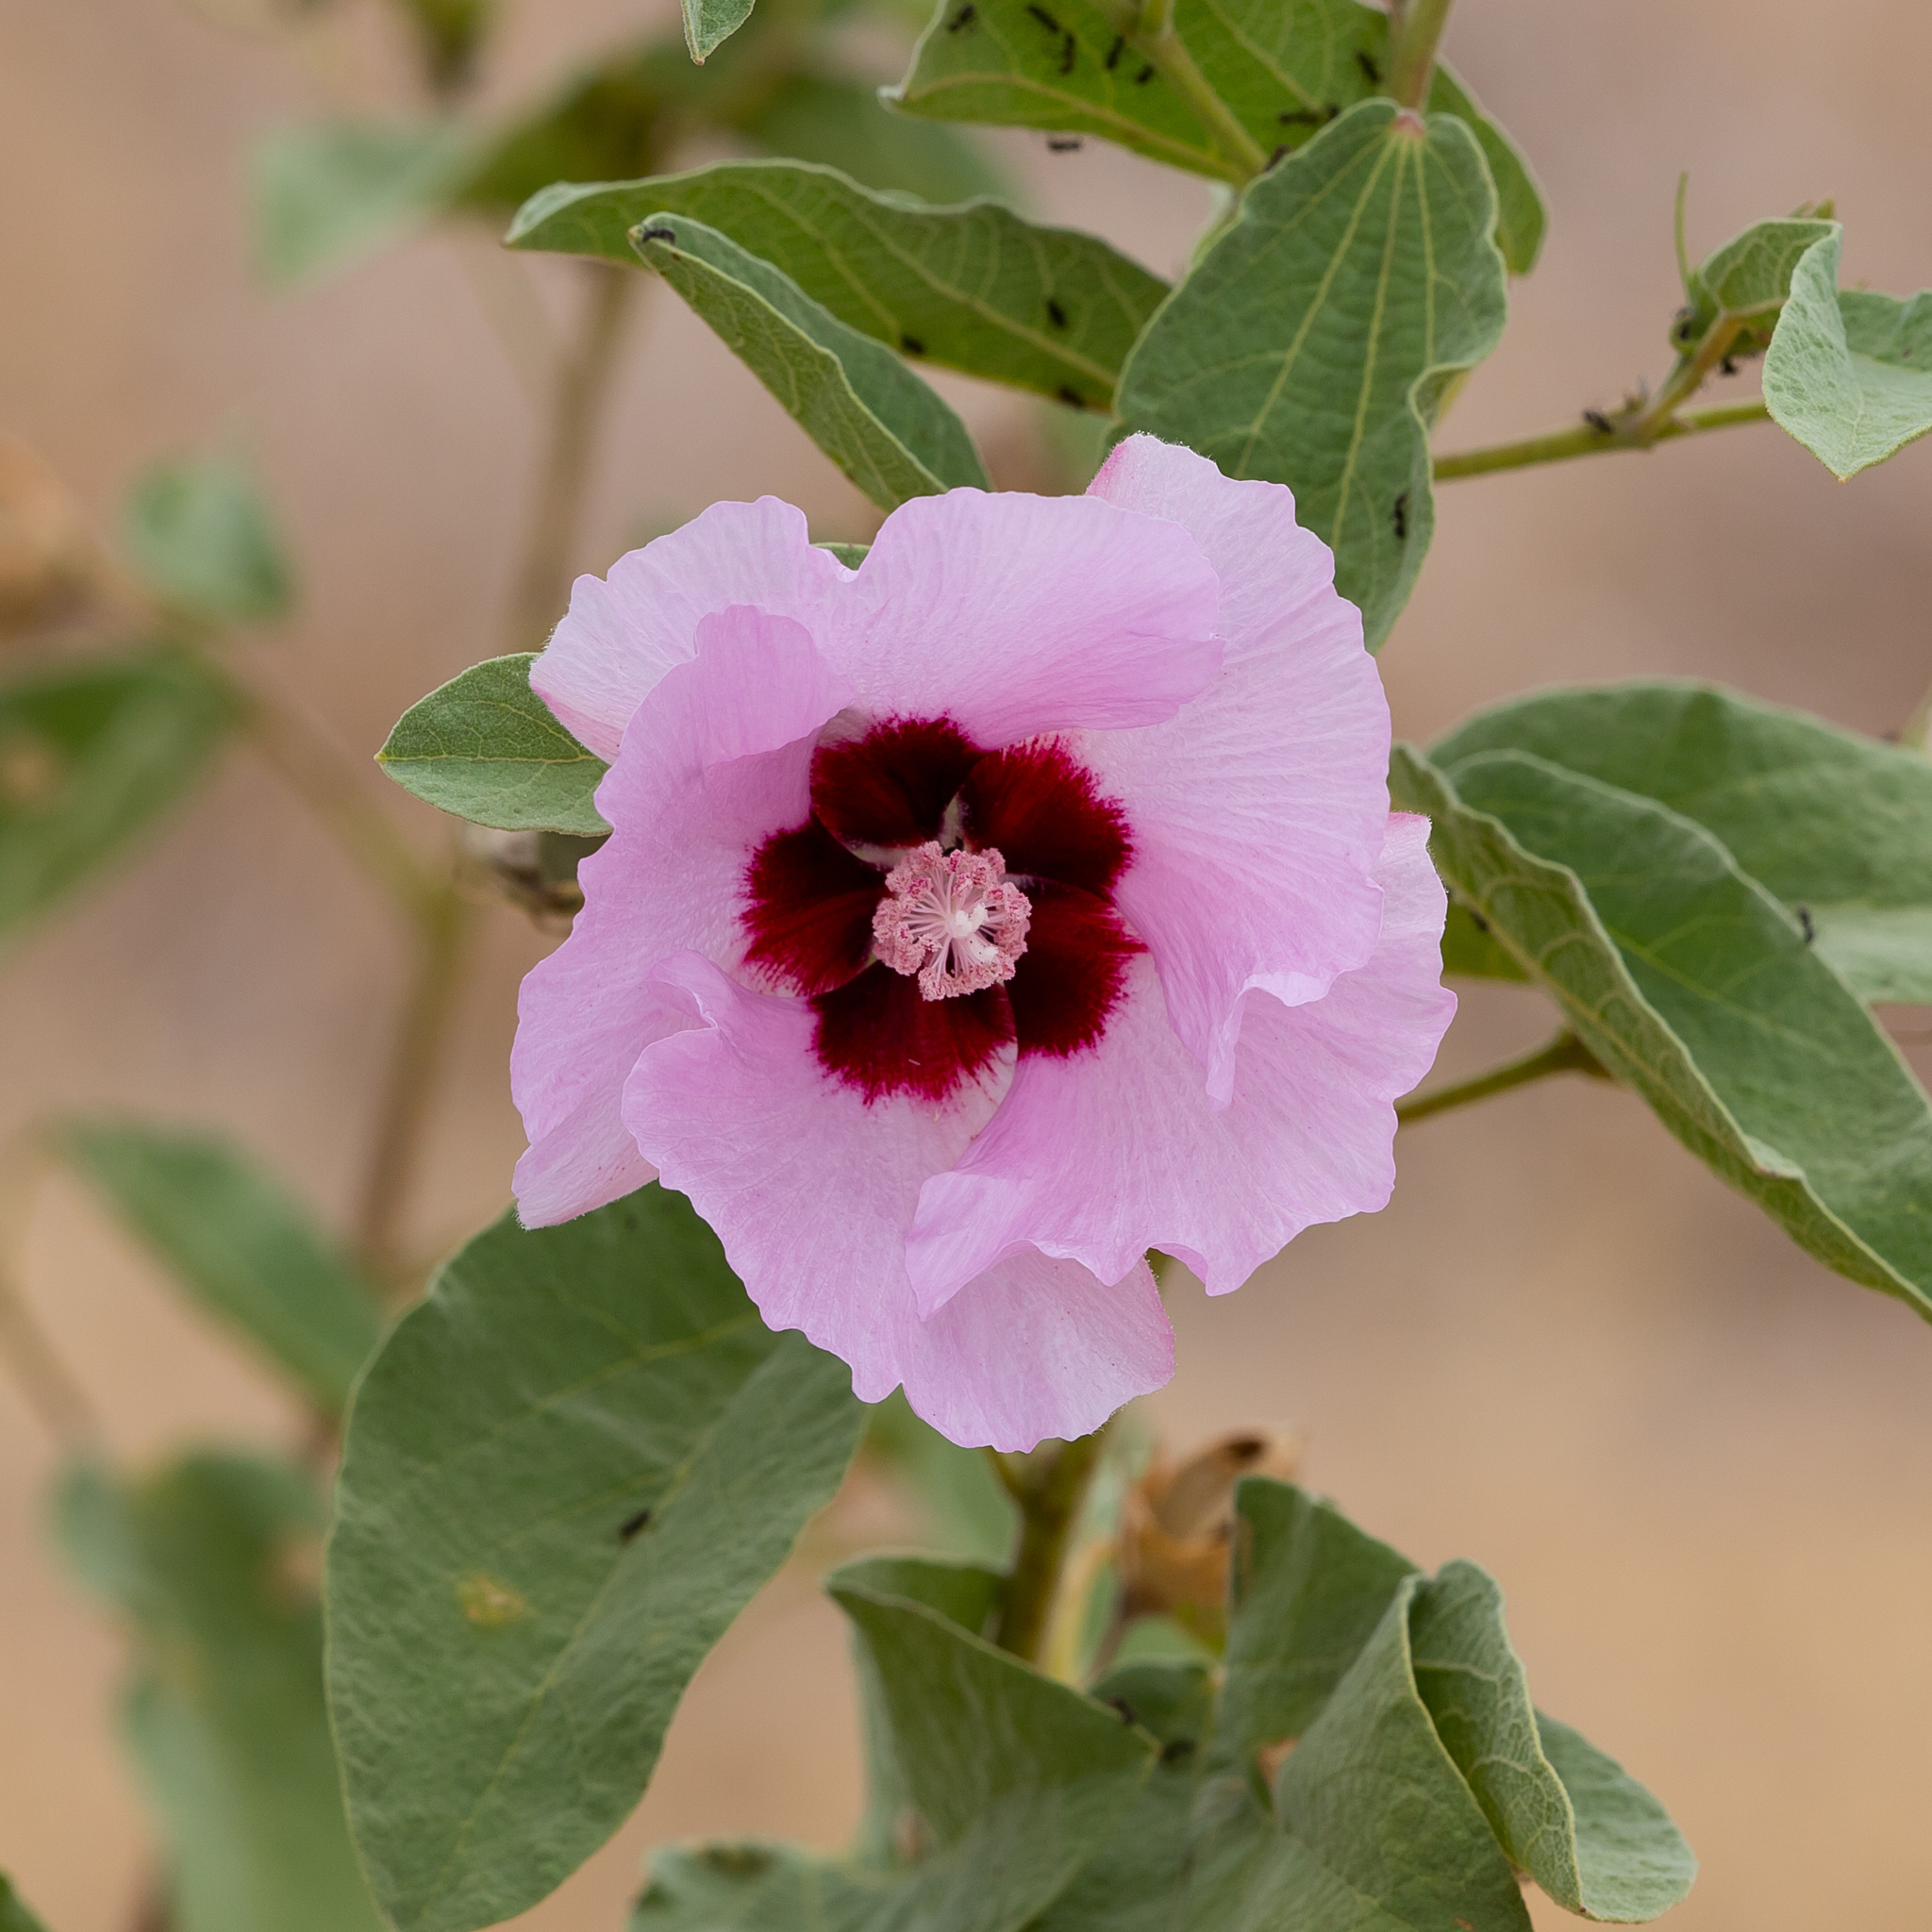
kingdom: Plantae
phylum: Tracheophyta
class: Magnoliopsida
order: Malvales
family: Malvaceae
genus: Cienfuegosia
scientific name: Cienfuegosia australis
